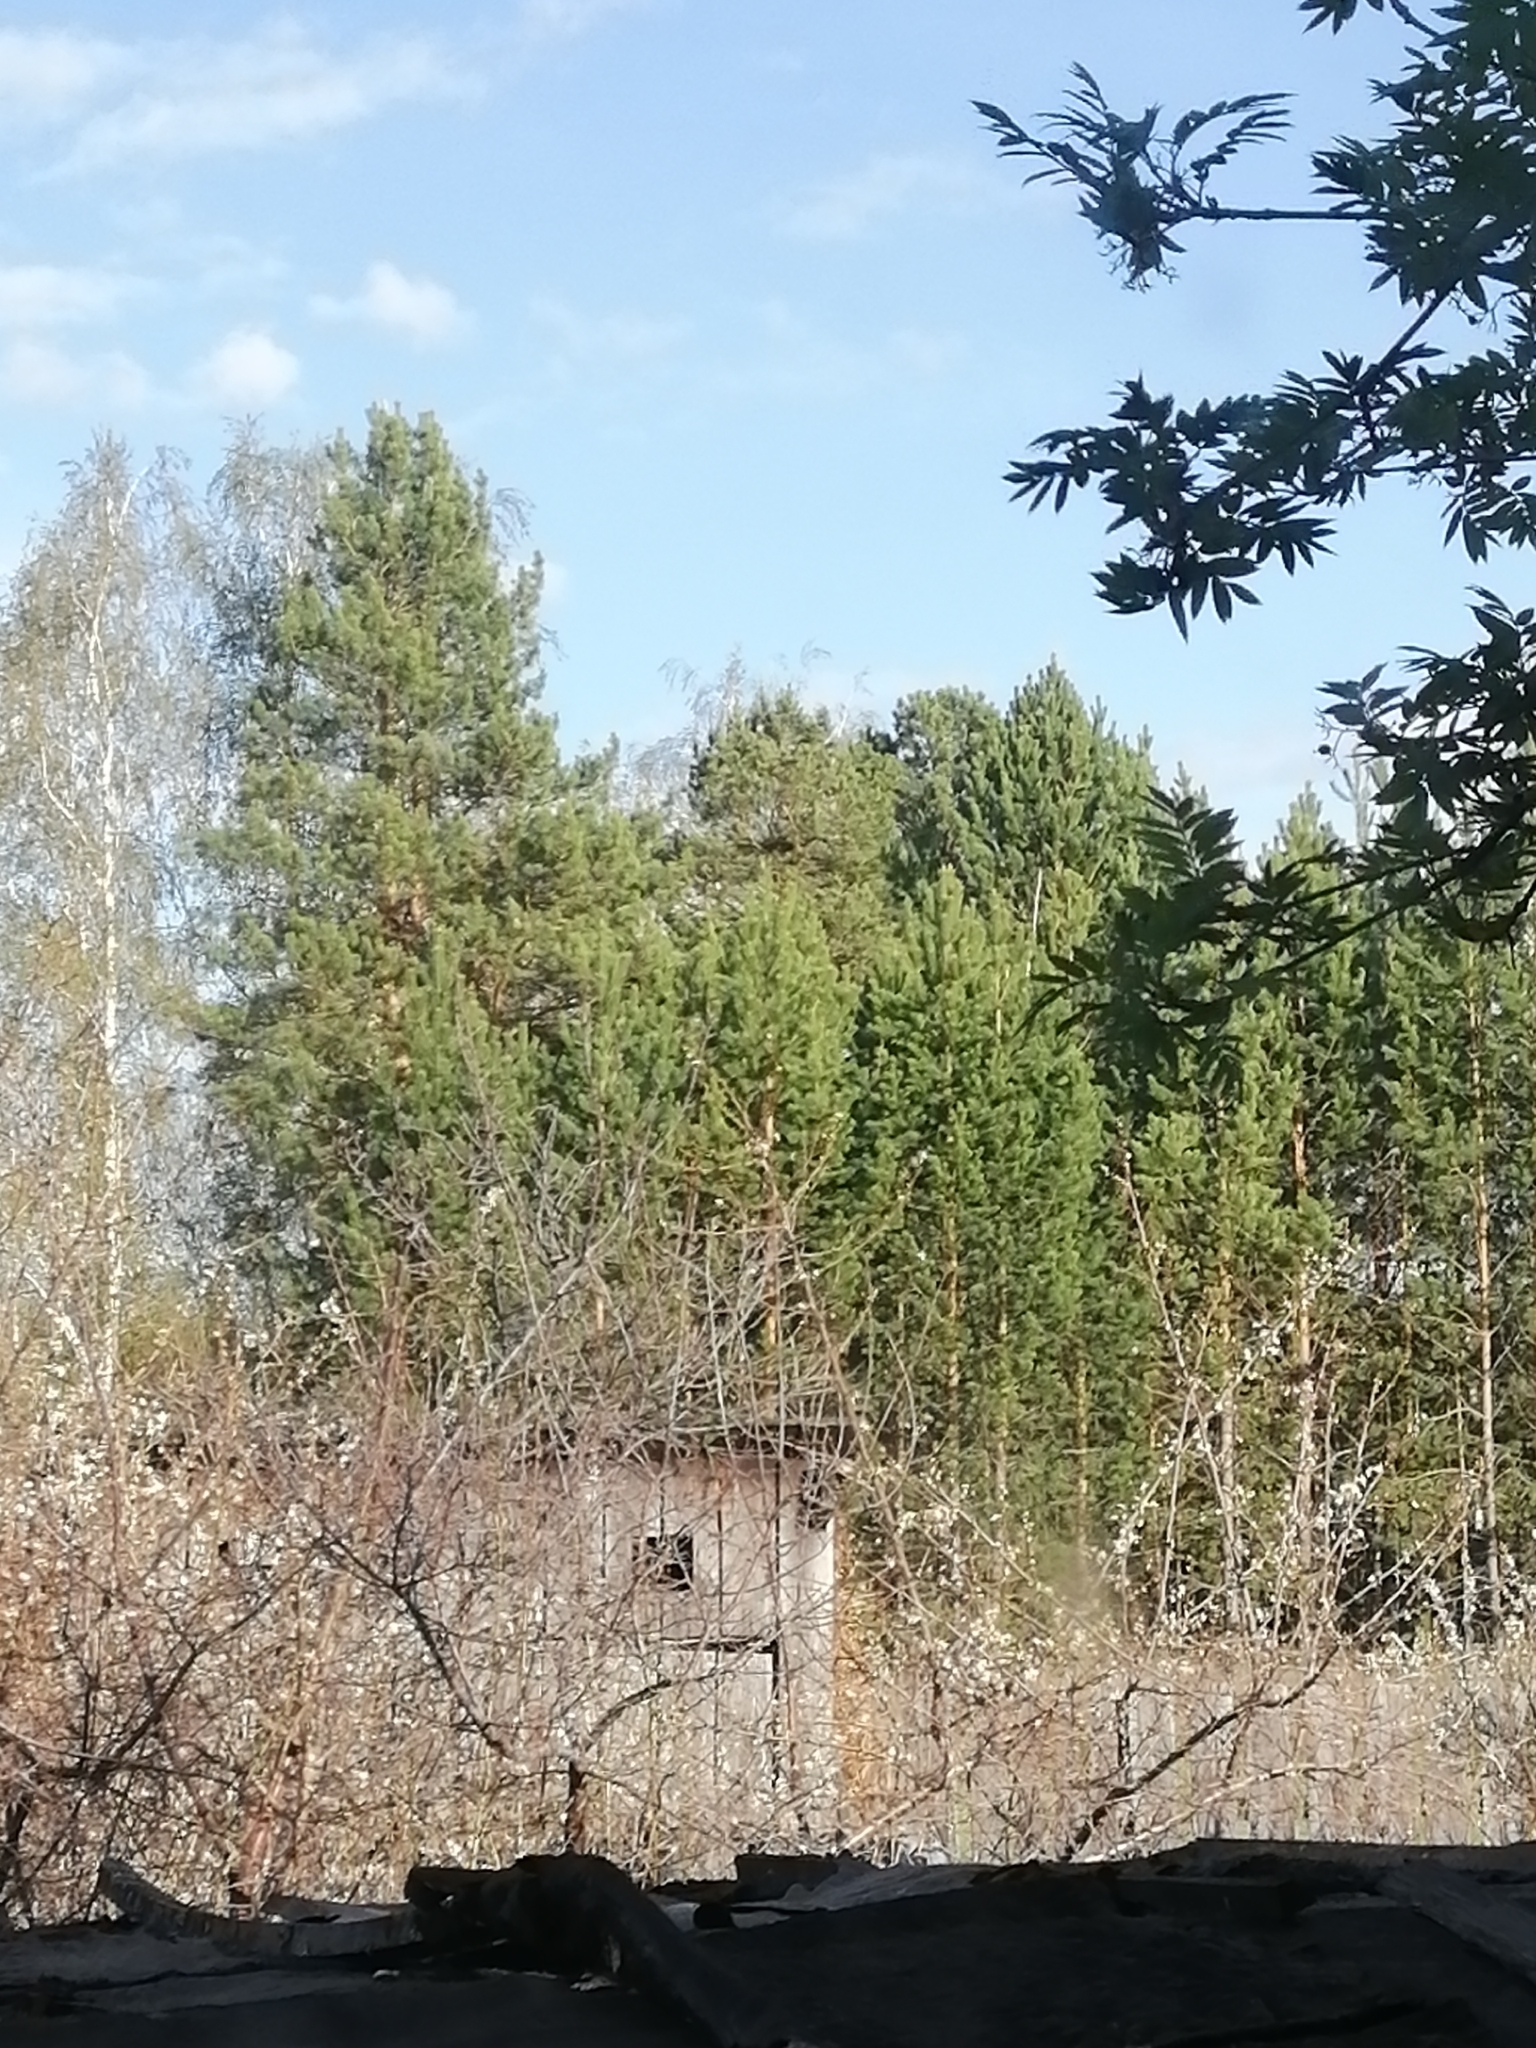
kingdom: Plantae
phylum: Tracheophyta
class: Pinopsida
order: Pinales
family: Pinaceae
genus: Pinus
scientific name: Pinus sylvestris
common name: Scots pine
